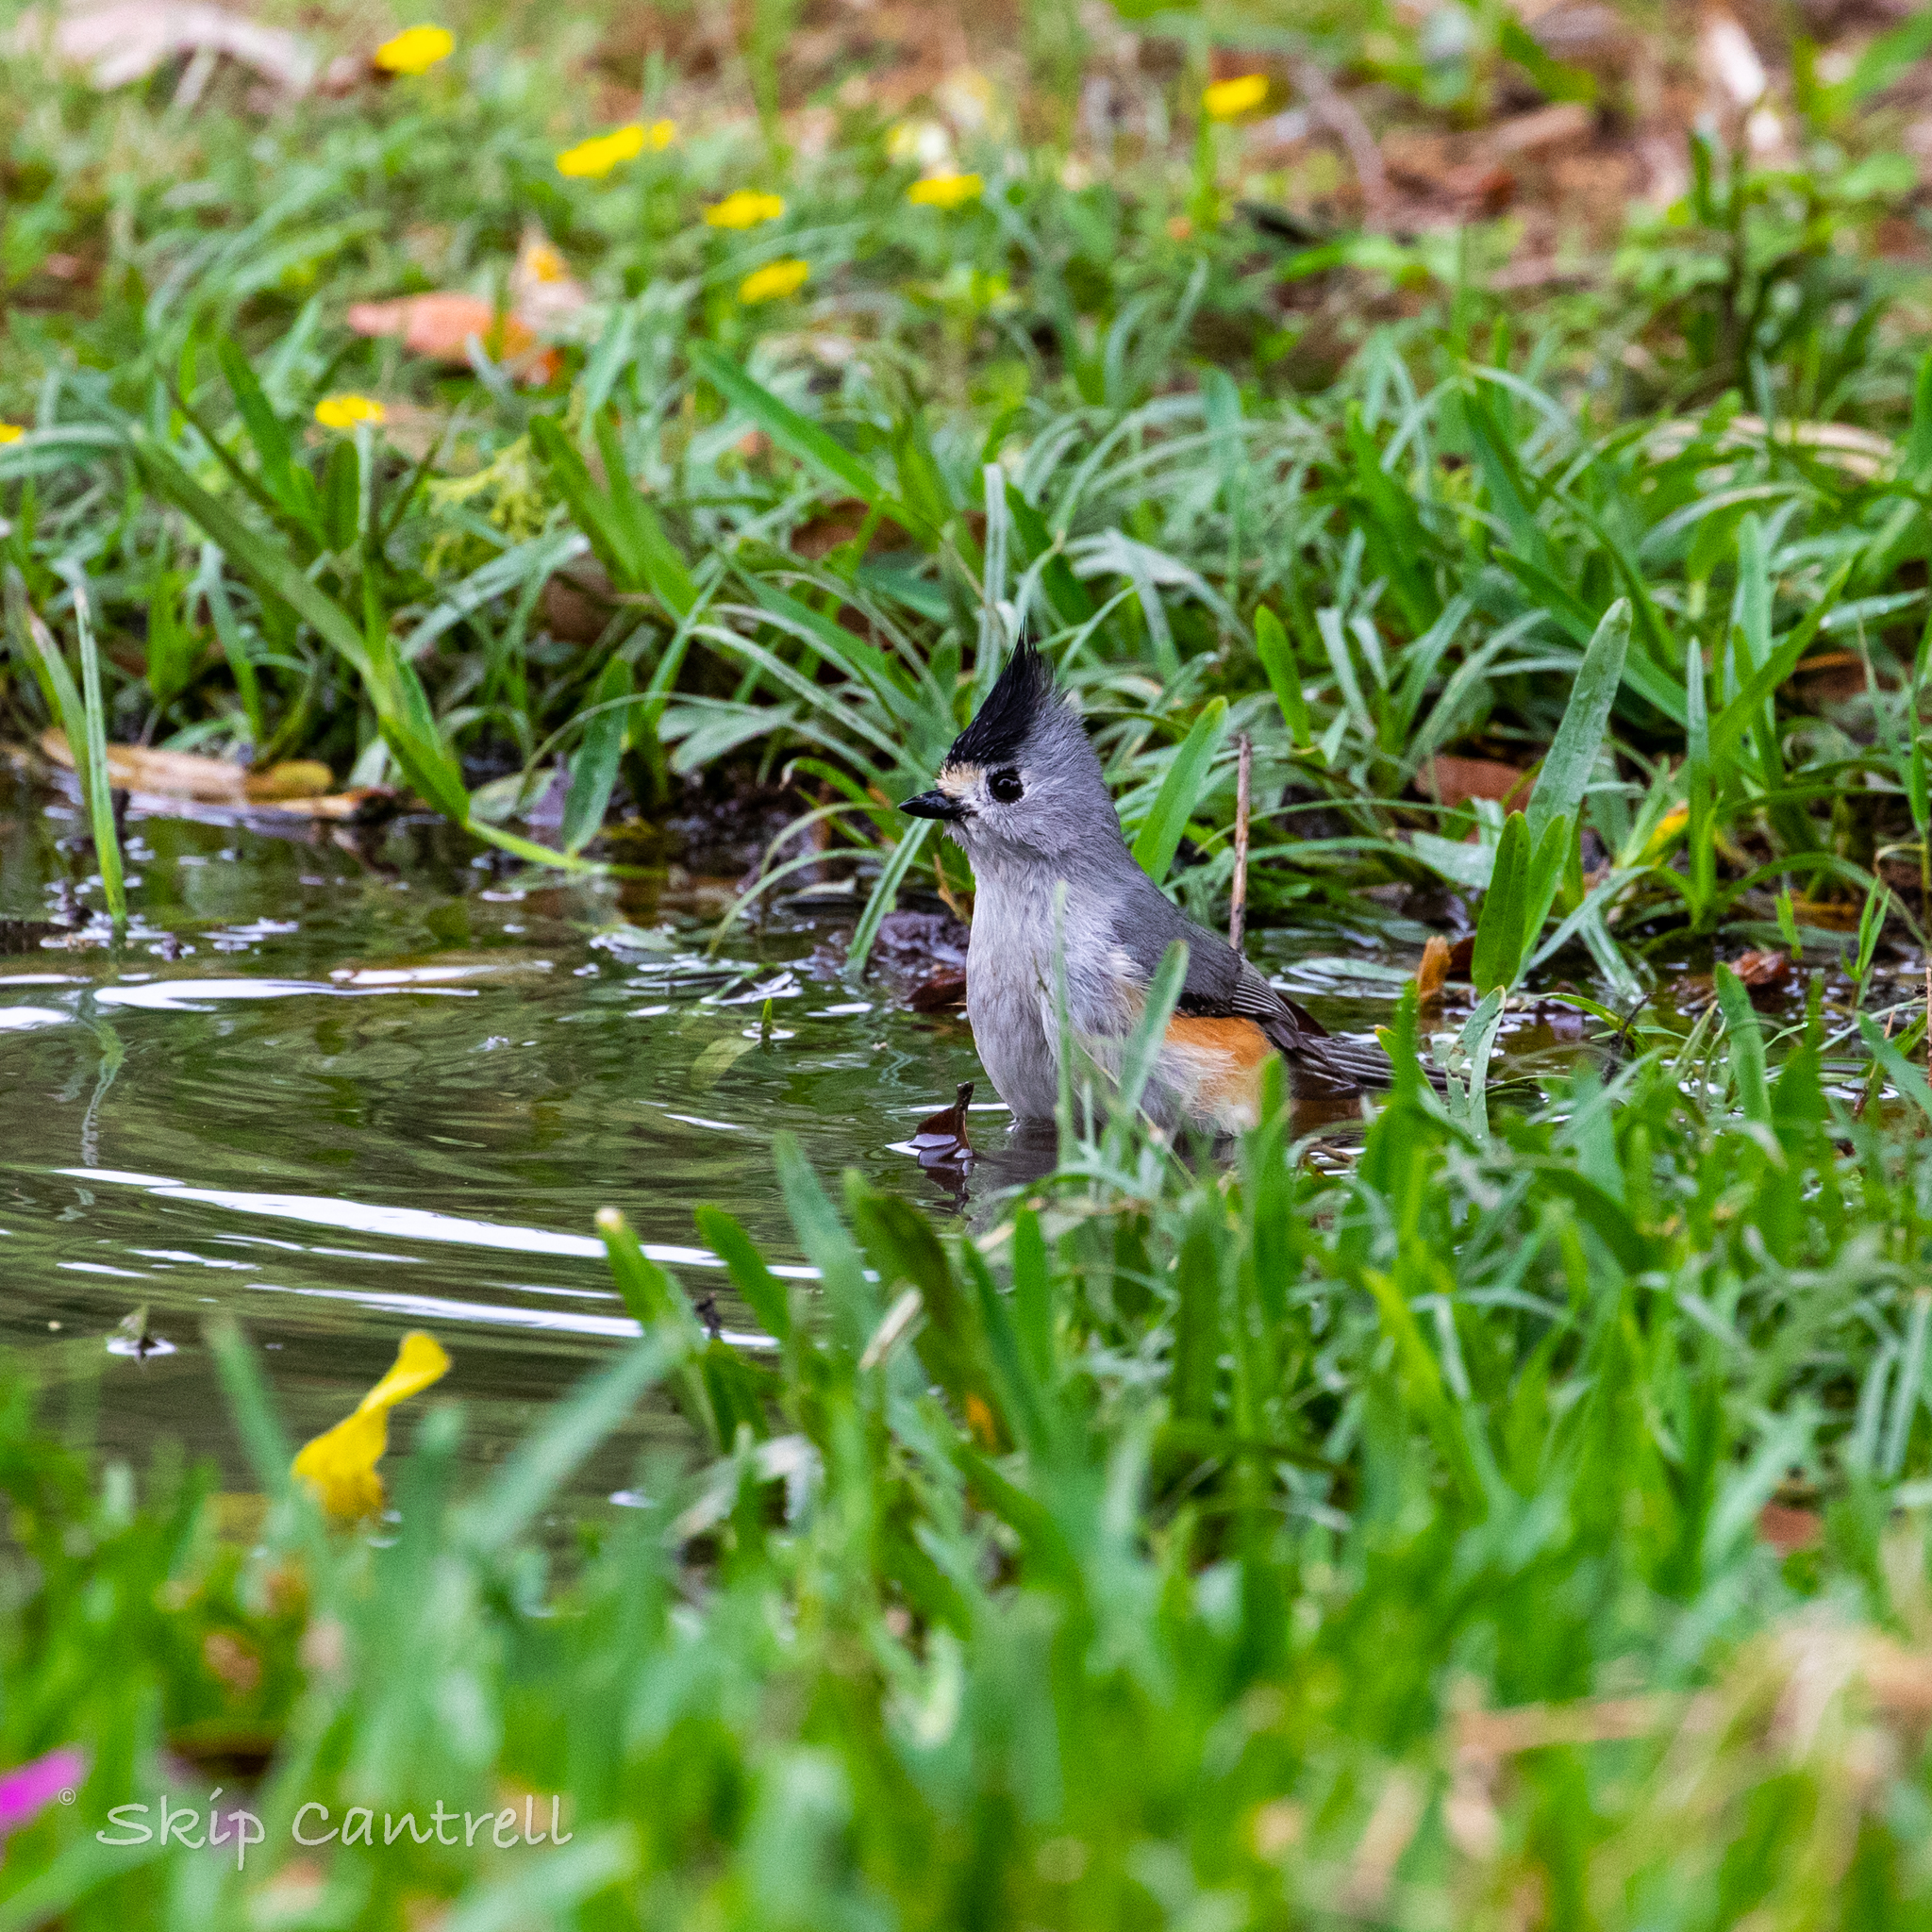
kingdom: Animalia
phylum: Chordata
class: Aves
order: Passeriformes
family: Paridae
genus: Baeolophus
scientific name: Baeolophus atricristatus
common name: Black-crested titmouse
